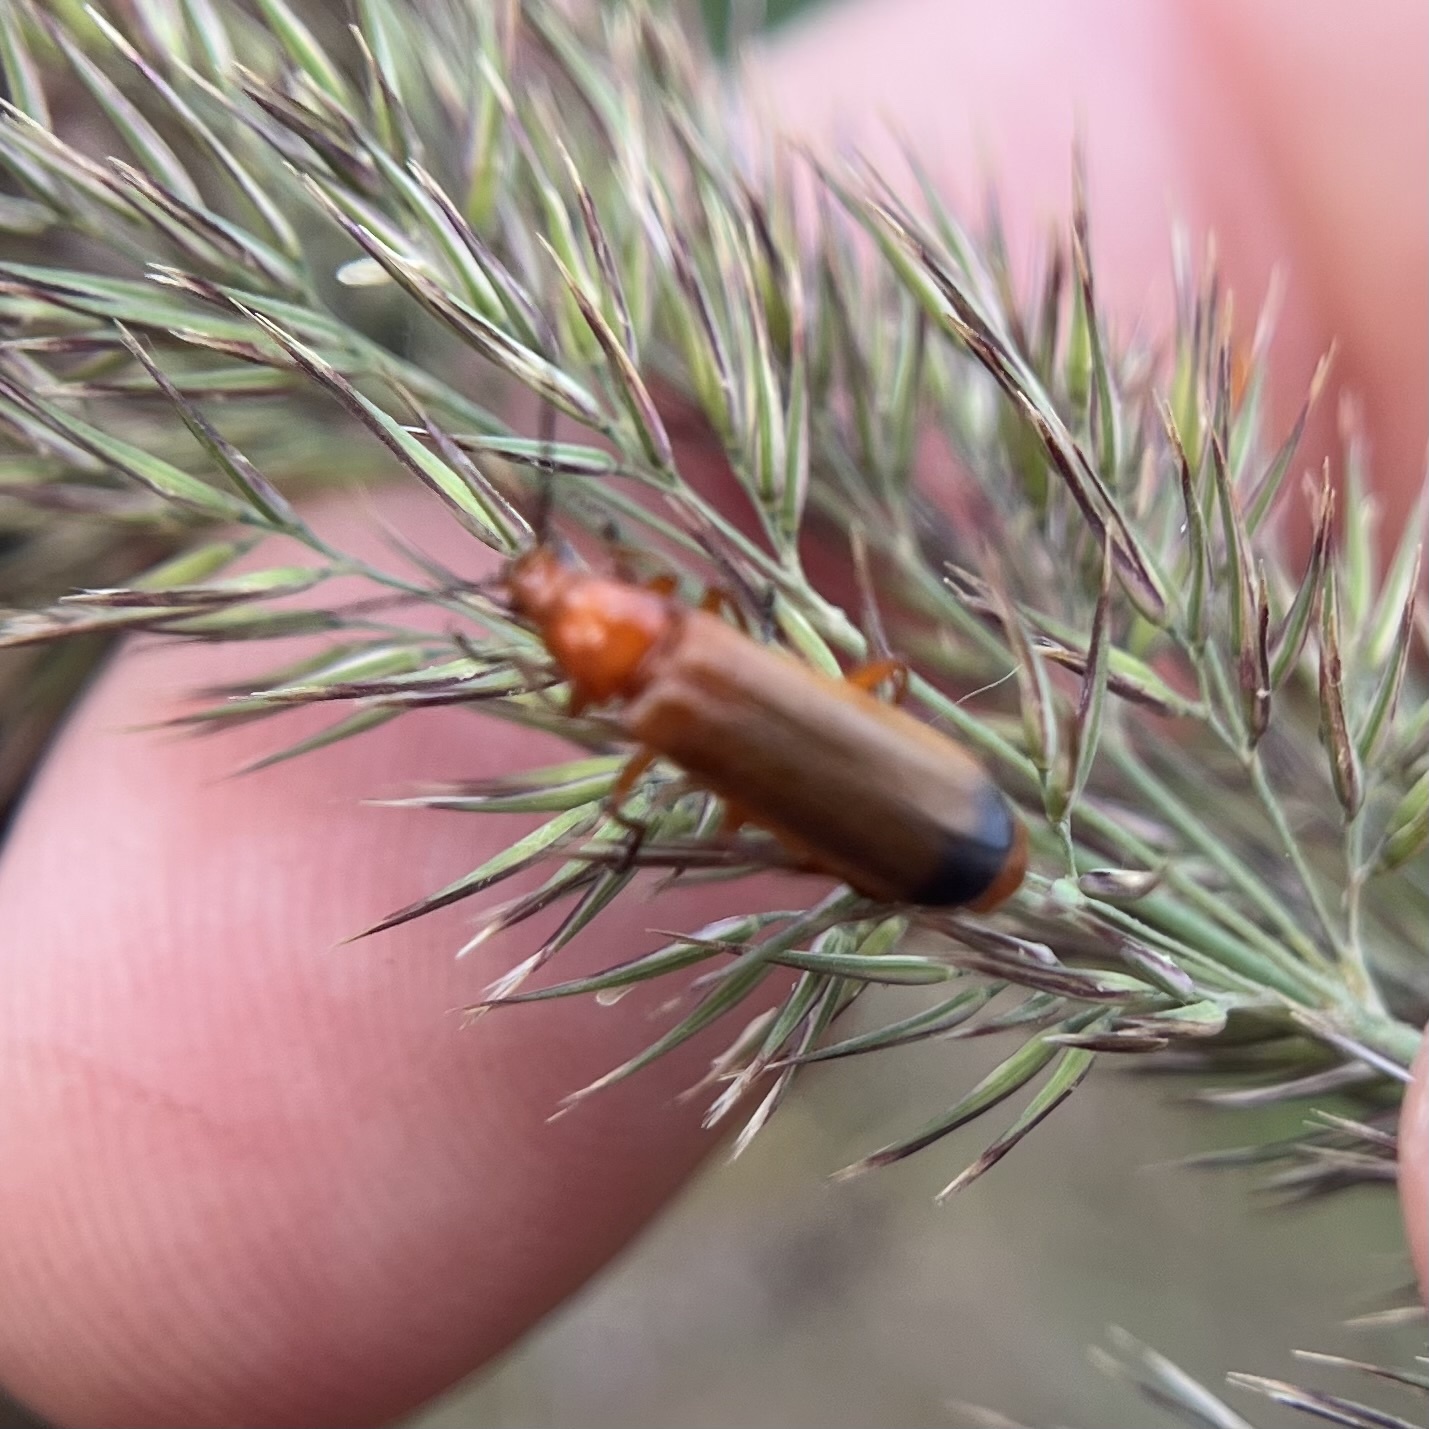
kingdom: Animalia
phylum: Arthropoda
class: Insecta
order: Coleoptera
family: Cantharidae
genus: Rhagonycha
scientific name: Rhagonycha fulva
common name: Common red soldier beetle
